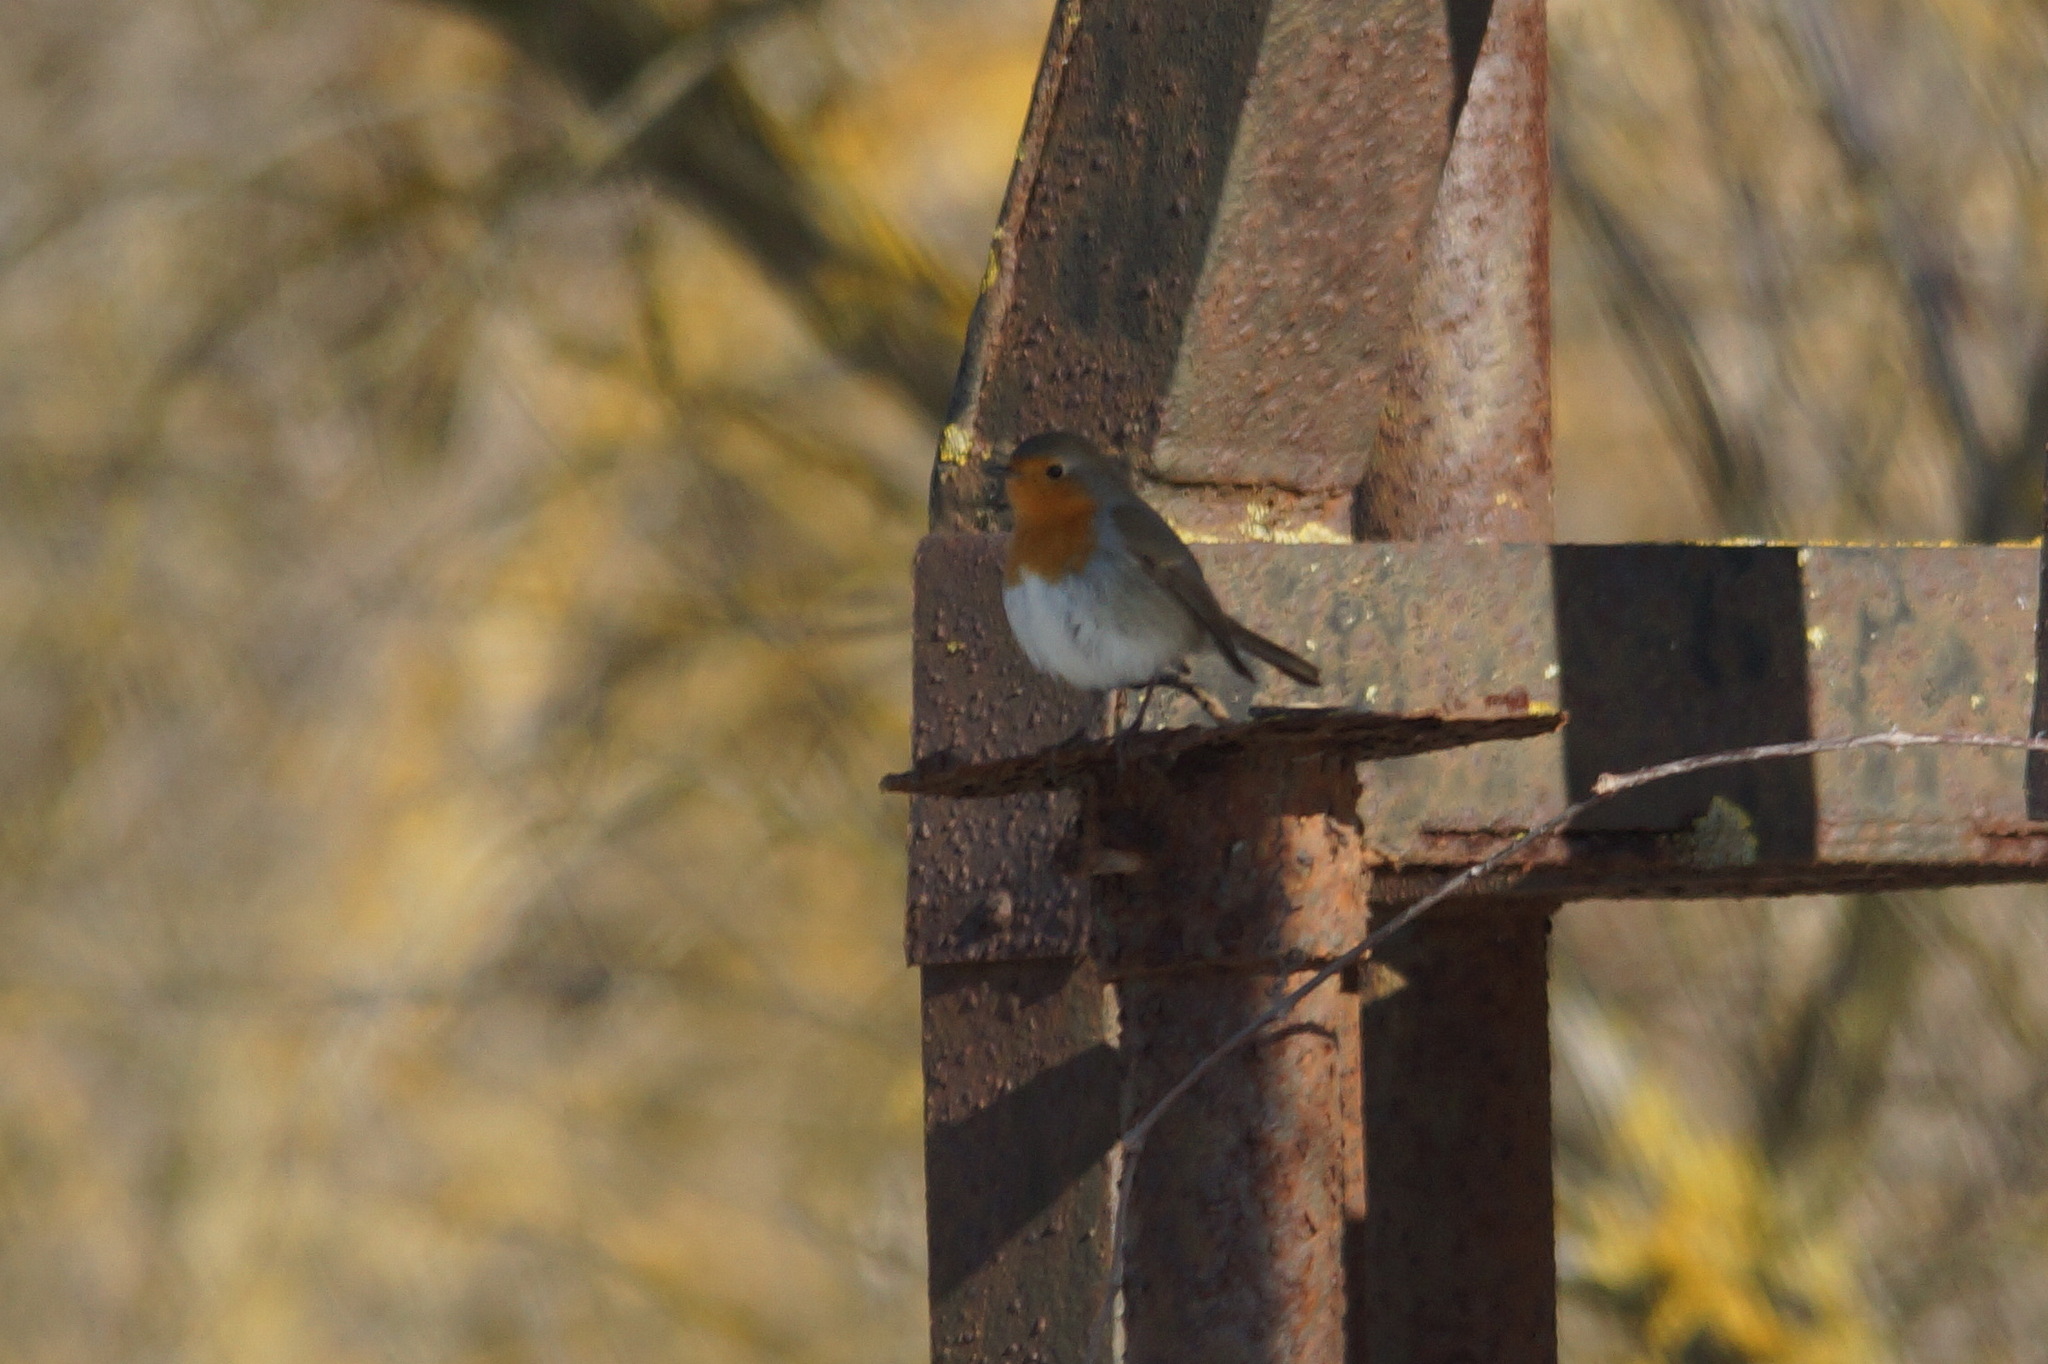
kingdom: Animalia
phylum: Chordata
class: Aves
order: Passeriformes
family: Muscicapidae
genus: Erithacus
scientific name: Erithacus rubecula
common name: European robin
